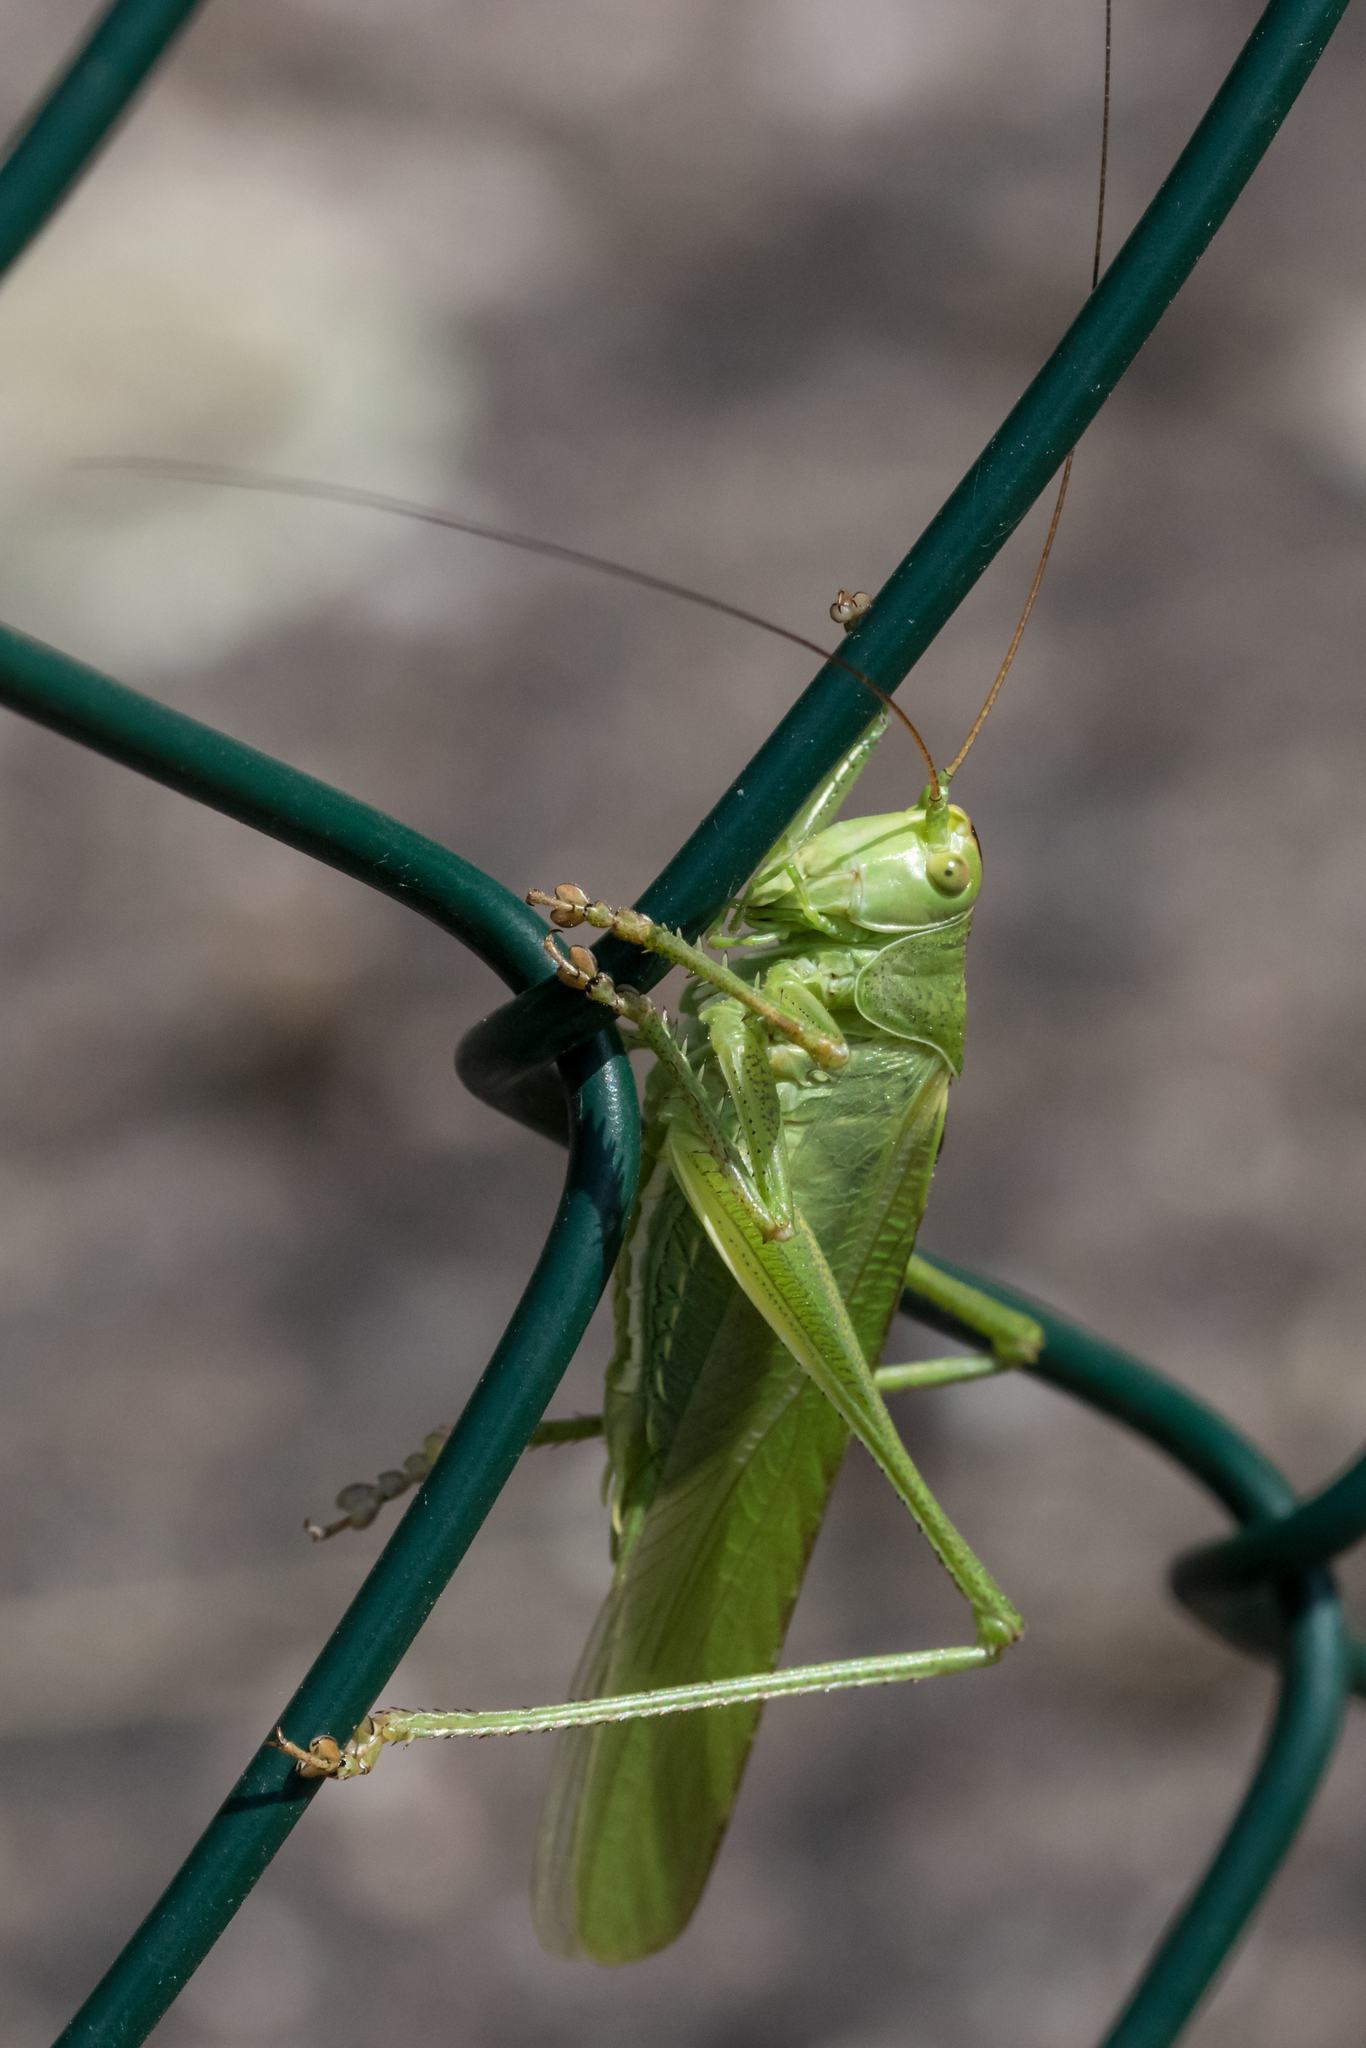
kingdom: Animalia
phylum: Arthropoda
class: Insecta
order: Orthoptera
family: Tettigoniidae
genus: Tettigonia
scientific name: Tettigonia viridissima
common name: Great green bush-cricket
